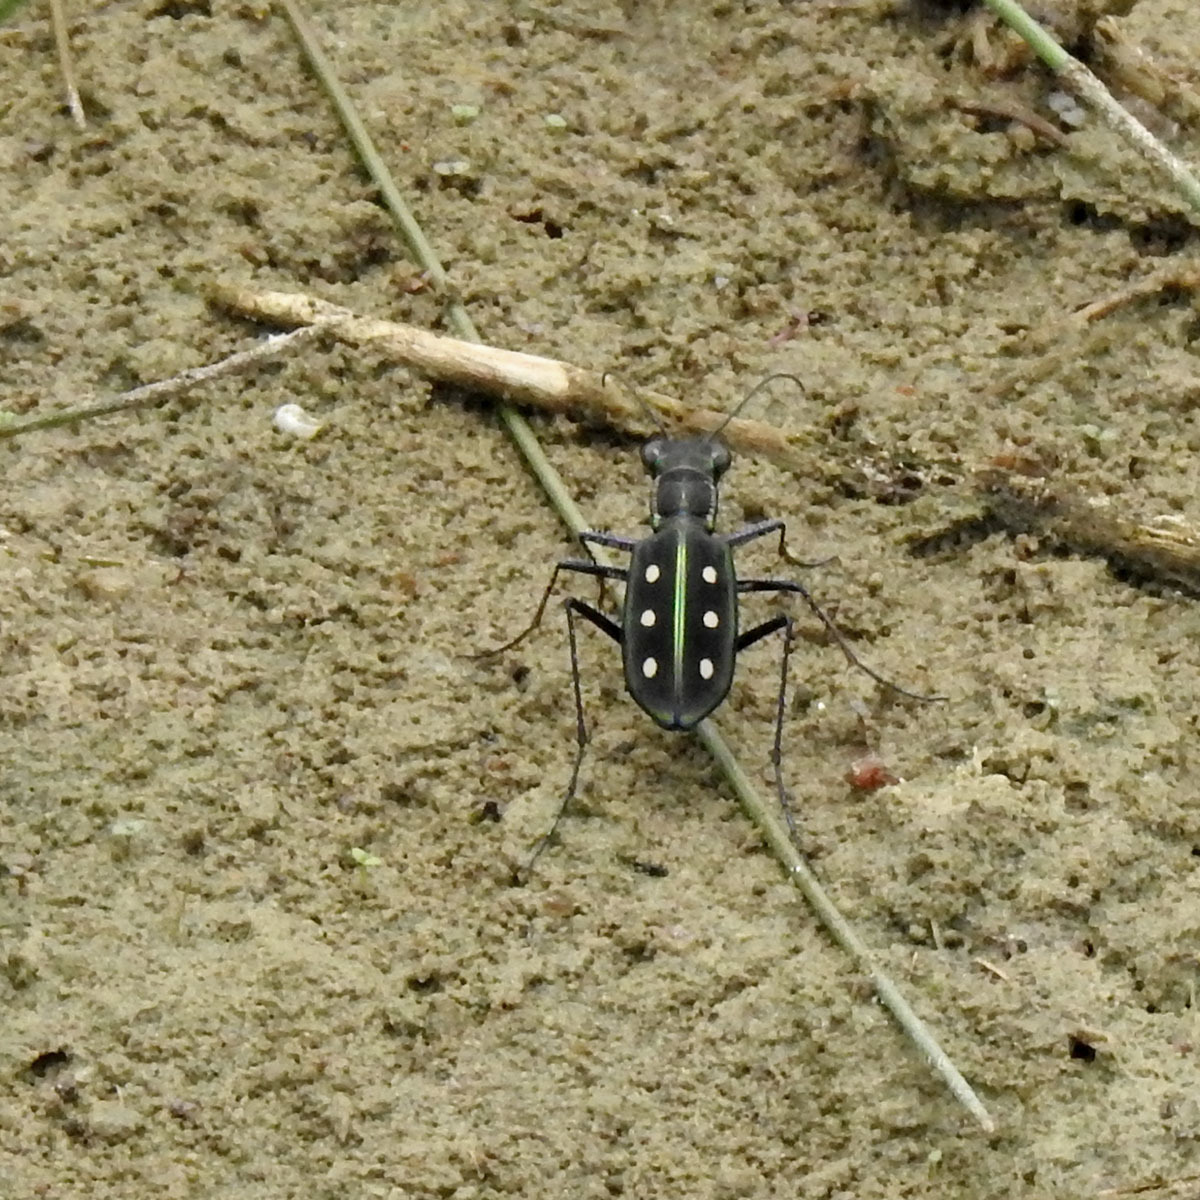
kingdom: Animalia
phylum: Arthropoda
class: Insecta
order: Coleoptera
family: Carabidae
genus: Cicindela
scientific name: Cicindela sexpunctata
